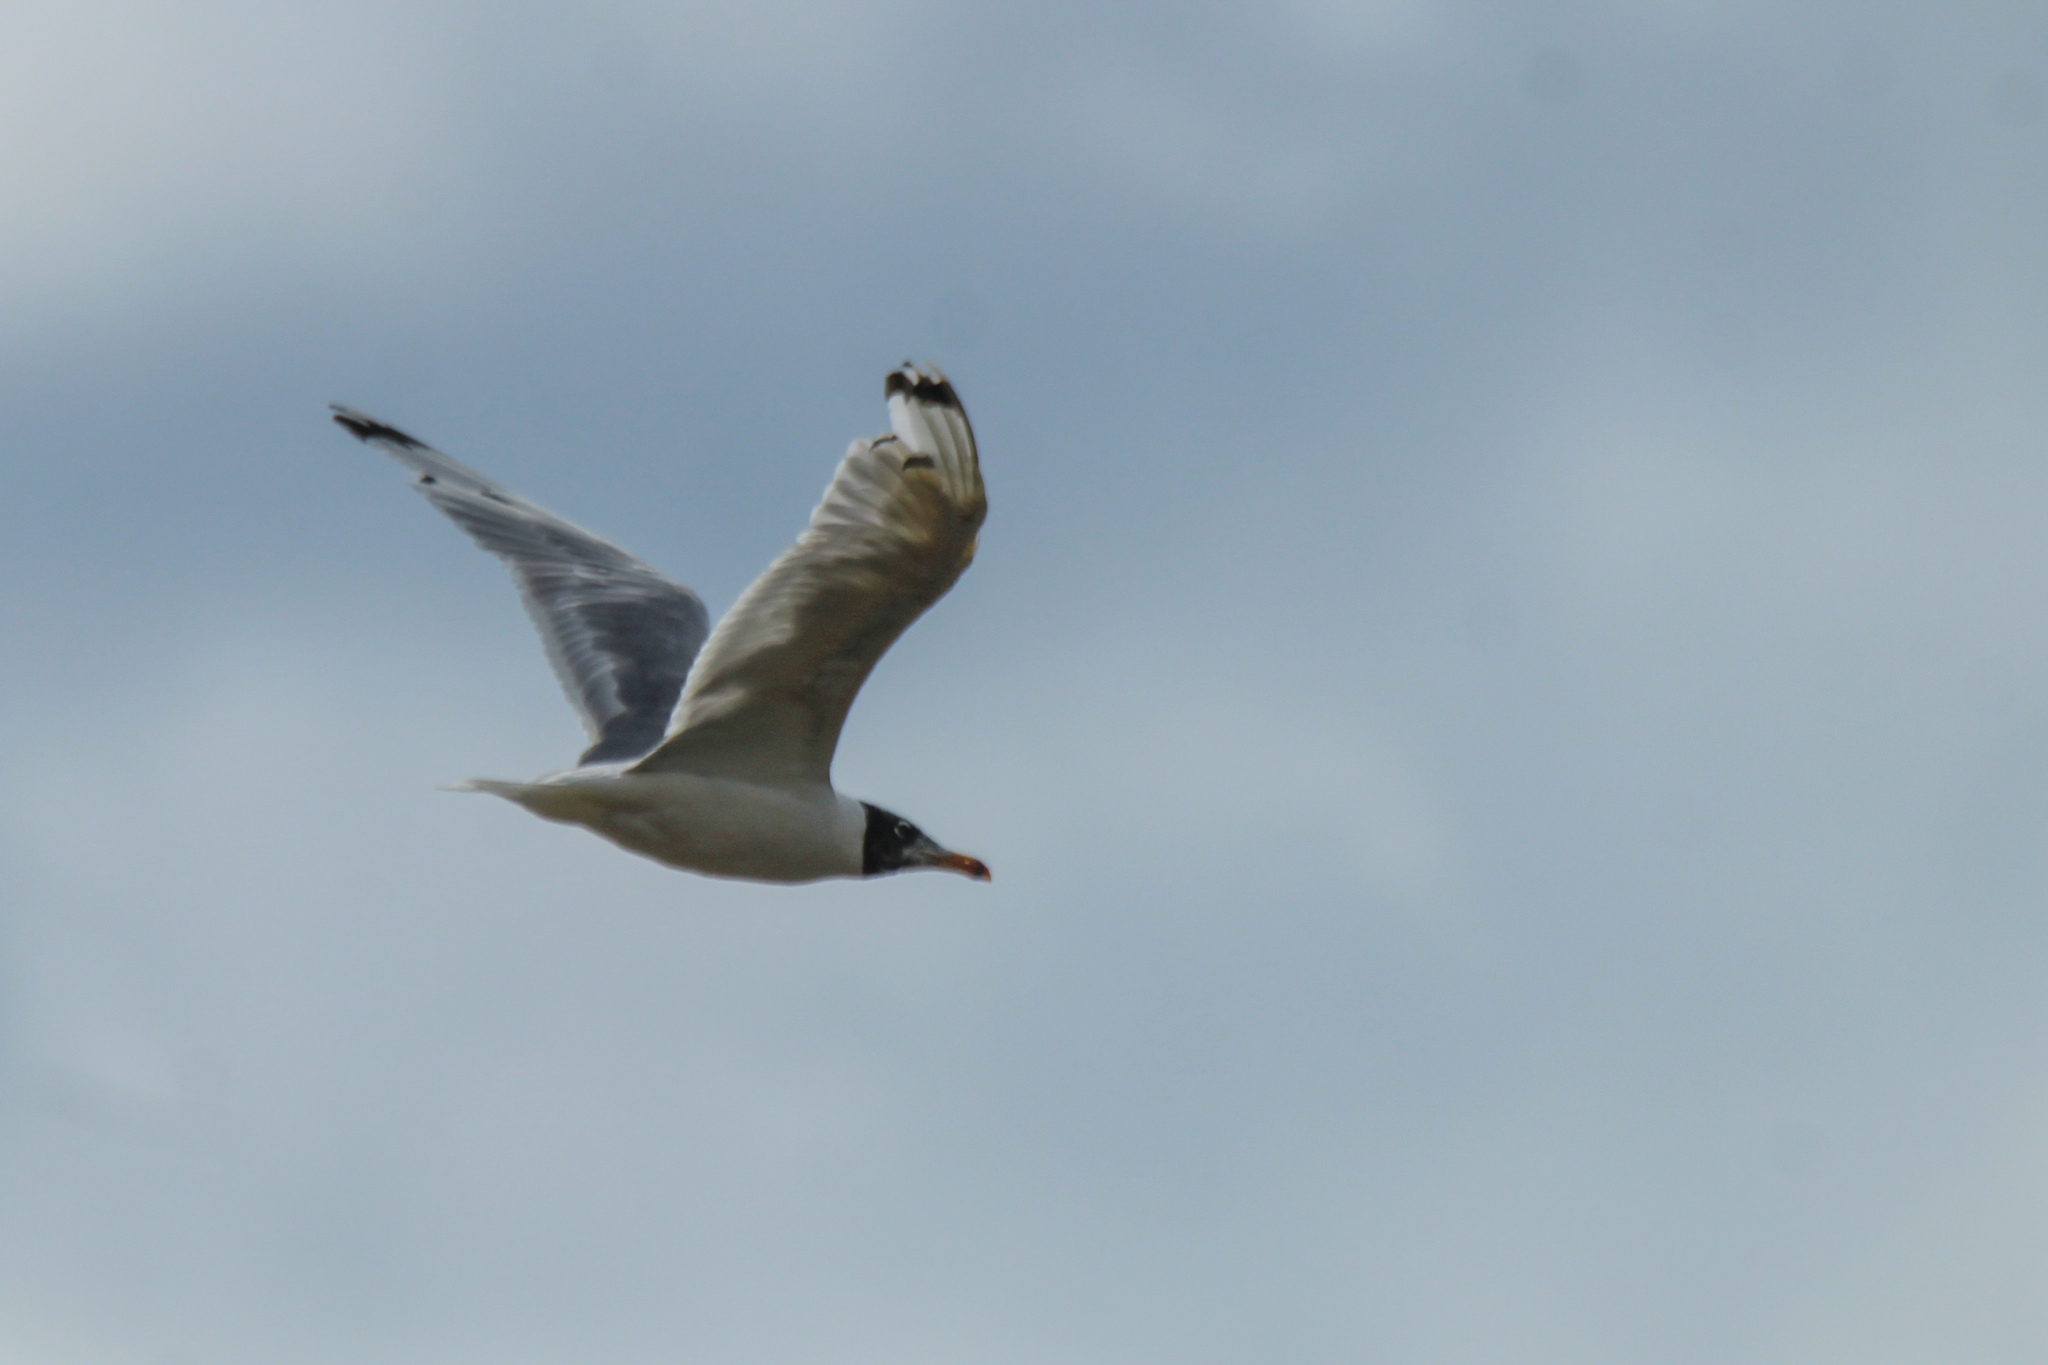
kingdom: Animalia
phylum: Chordata
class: Aves
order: Charadriiformes
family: Laridae
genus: Ichthyaetus
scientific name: Ichthyaetus ichthyaetus
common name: Pallas's gull
